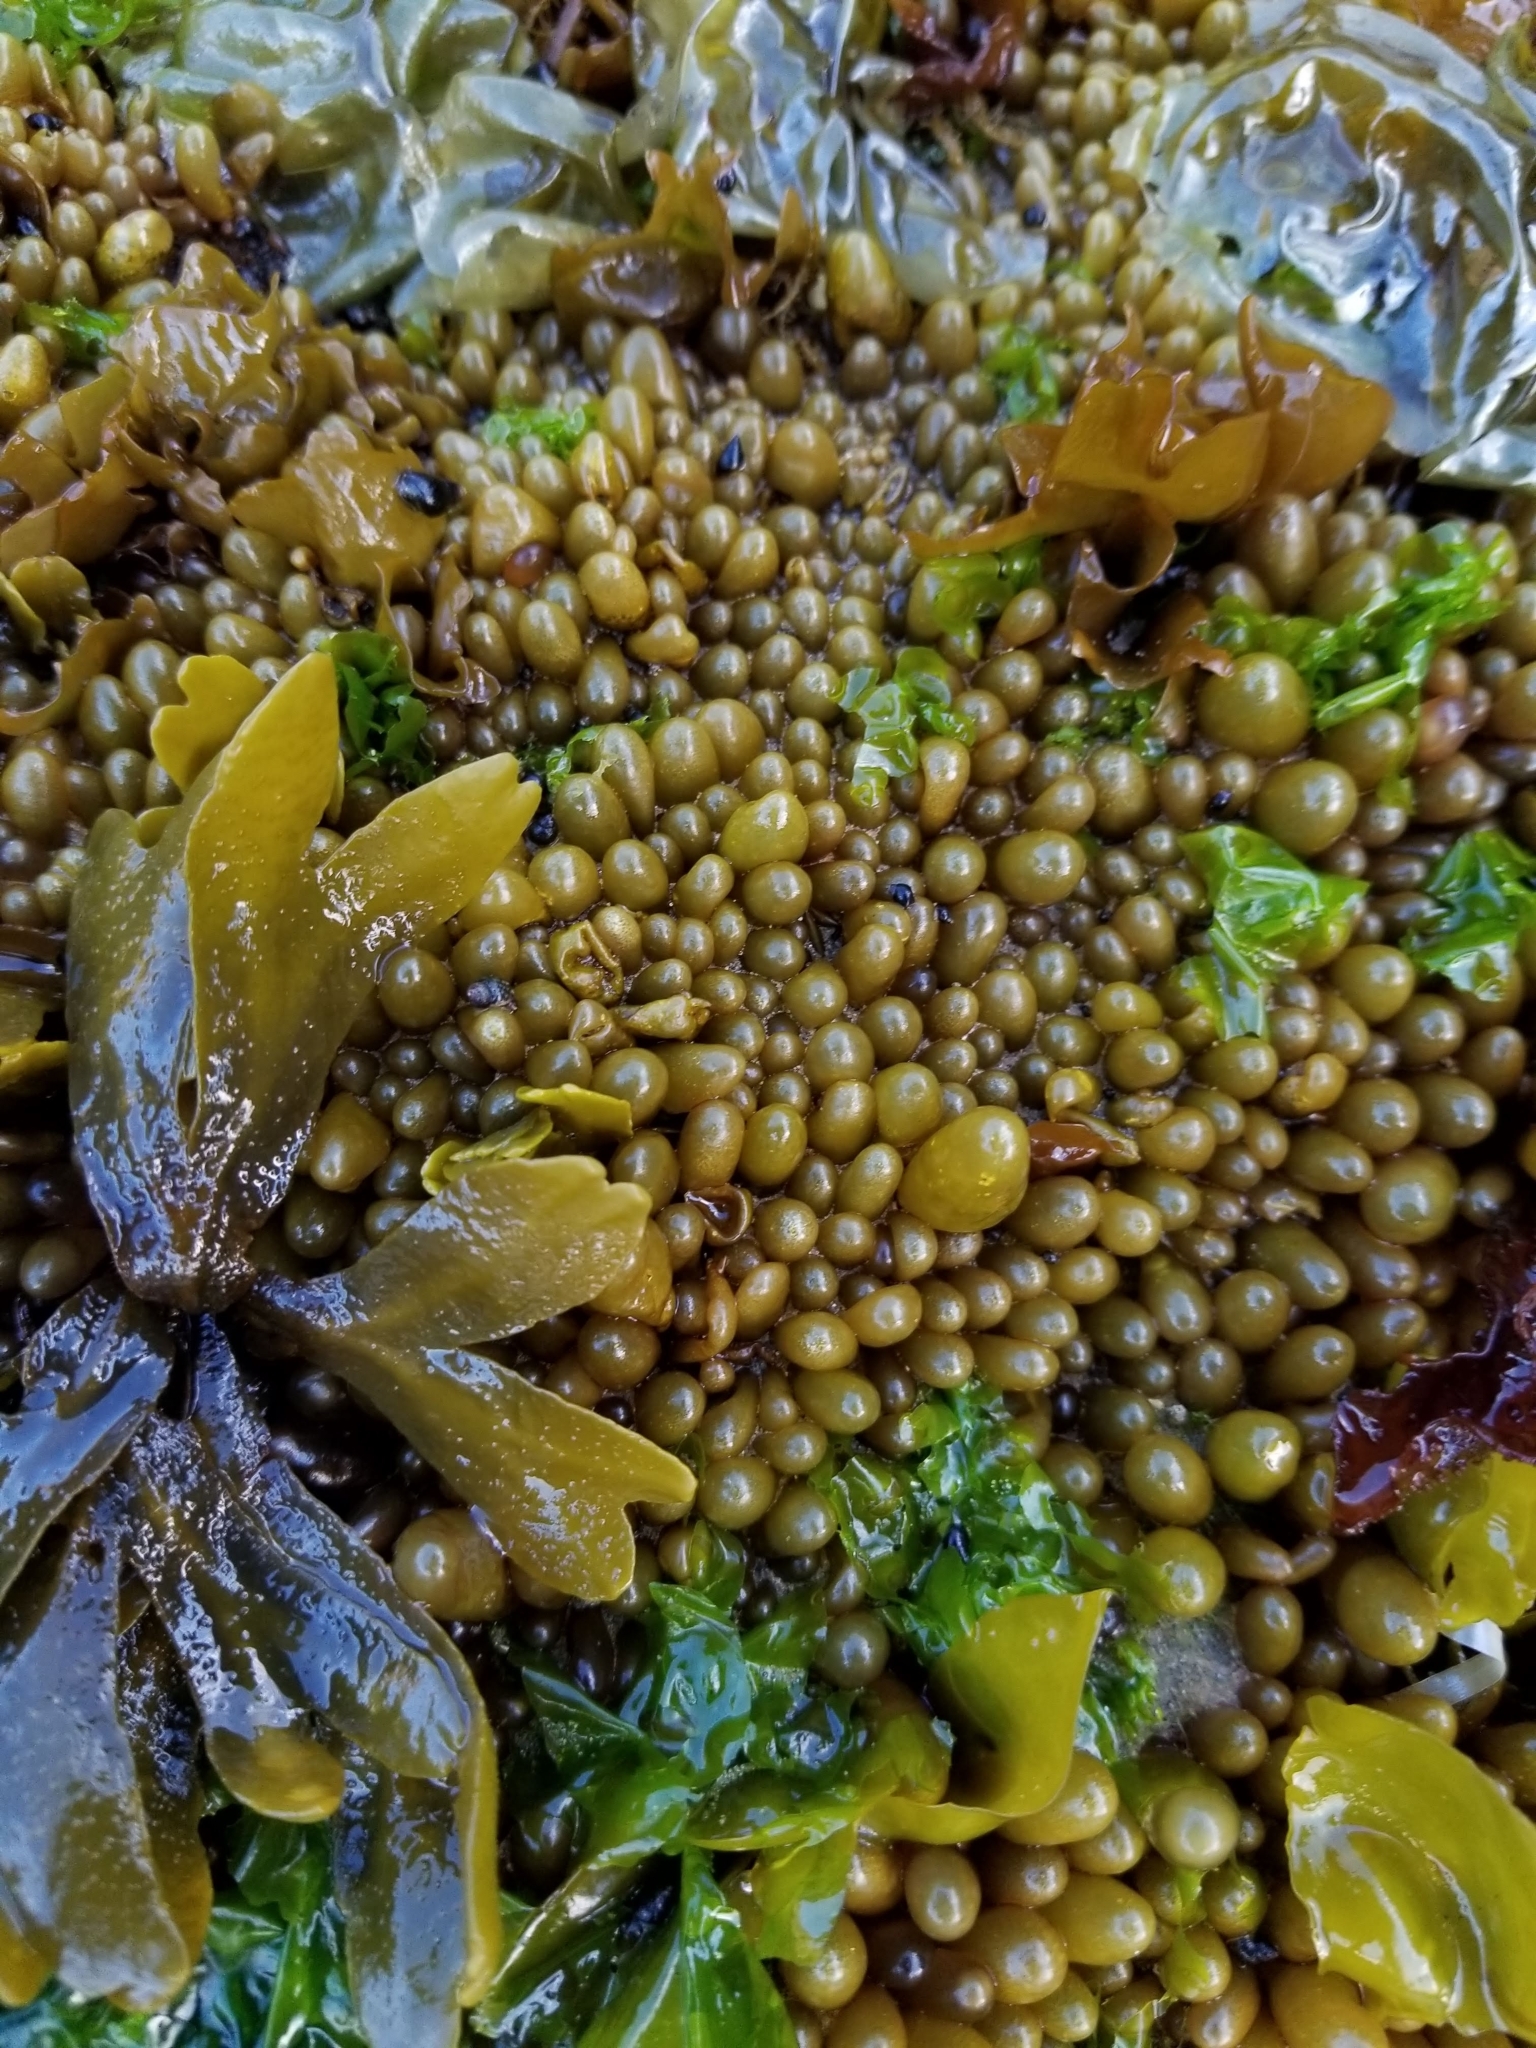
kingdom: Plantae
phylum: Rhodophyta
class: Florideophyceae
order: Palmariales
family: Palmariaceae
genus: Halosaccion
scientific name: Halosaccion glandiforme
